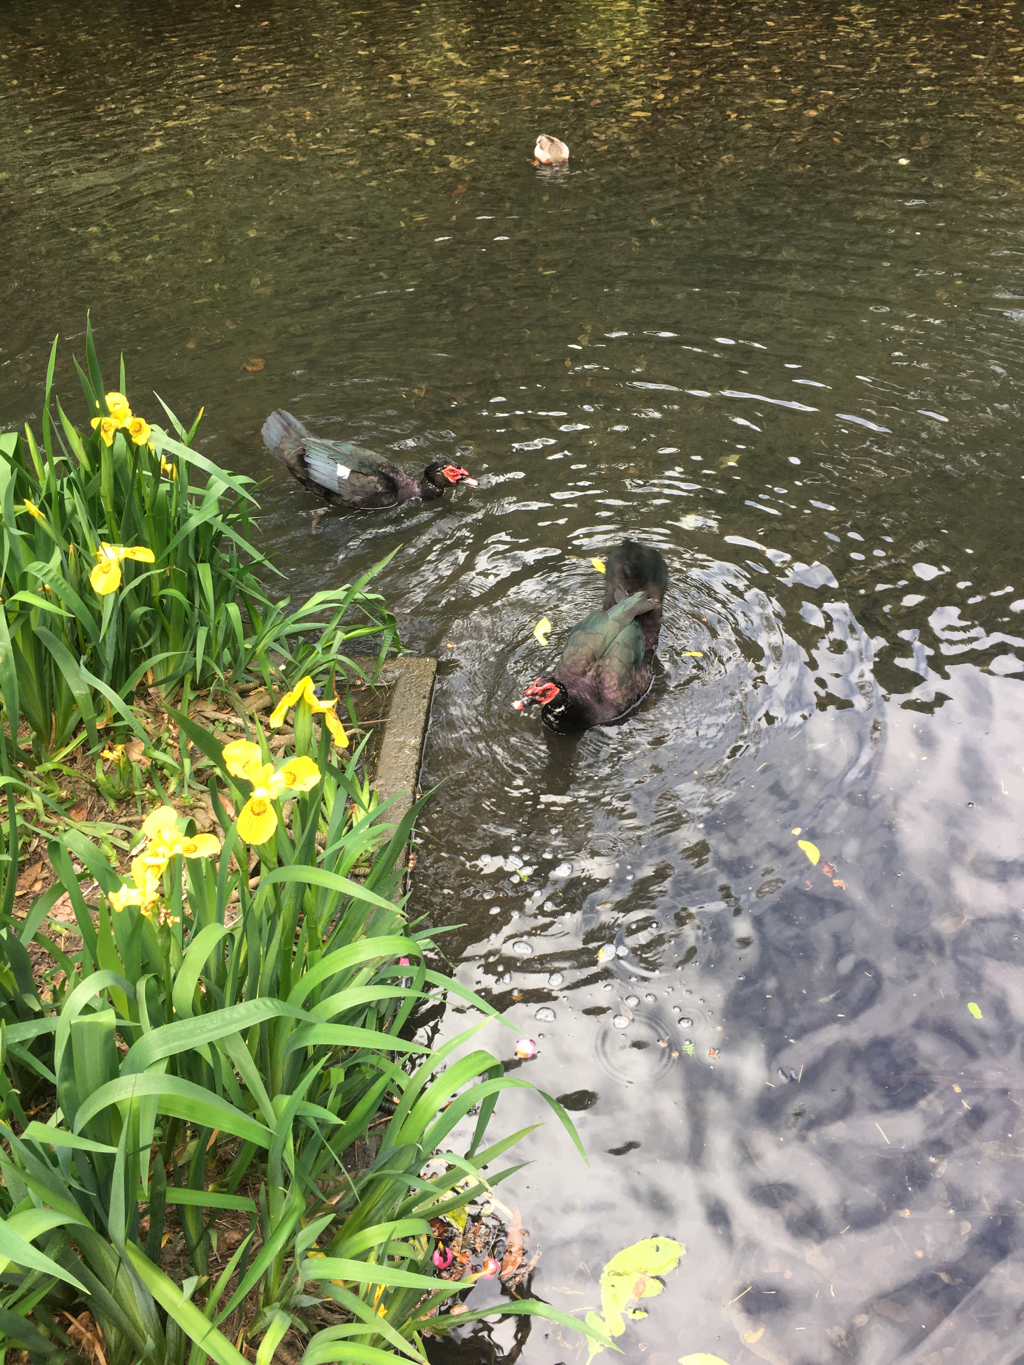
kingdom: Animalia
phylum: Chordata
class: Aves
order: Anseriformes
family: Anatidae
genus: Cairina
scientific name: Cairina moschata
